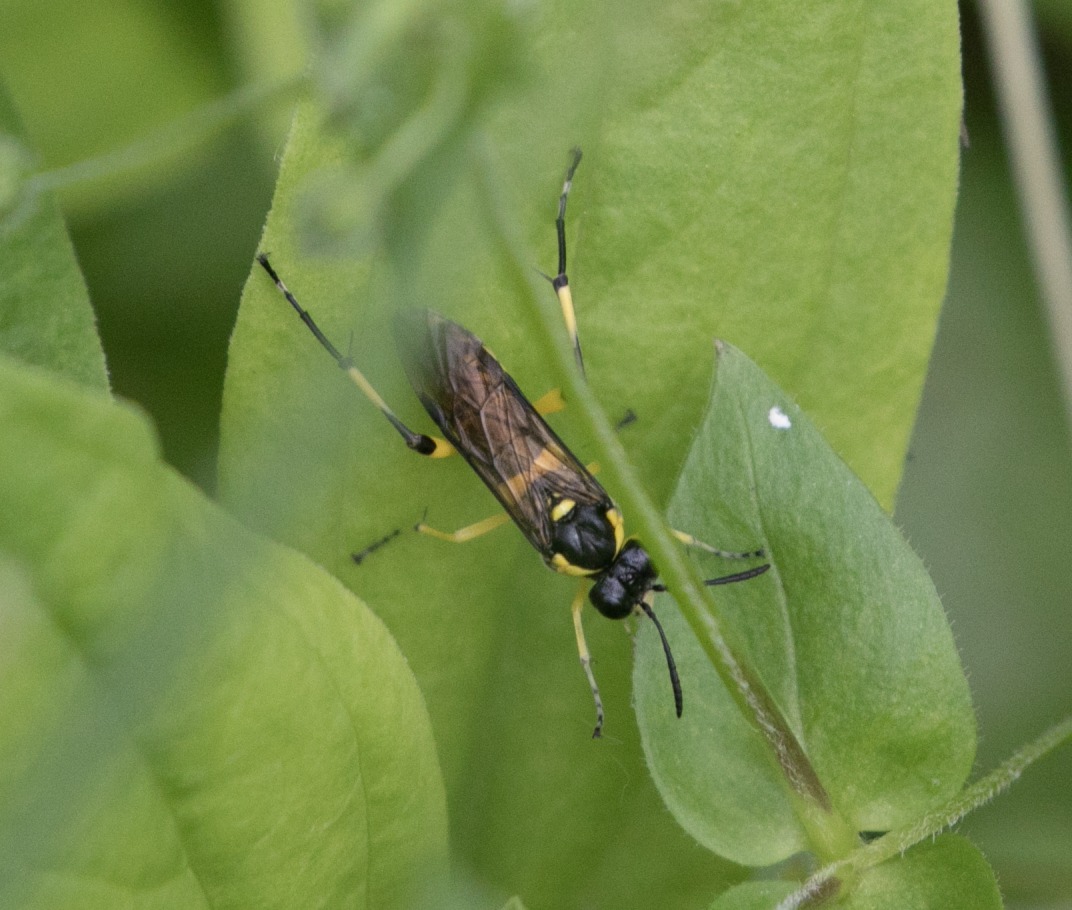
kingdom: Animalia
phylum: Arthropoda
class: Insecta
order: Hymenoptera
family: Tenthredinidae
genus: Macrophya
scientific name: Macrophya montana
